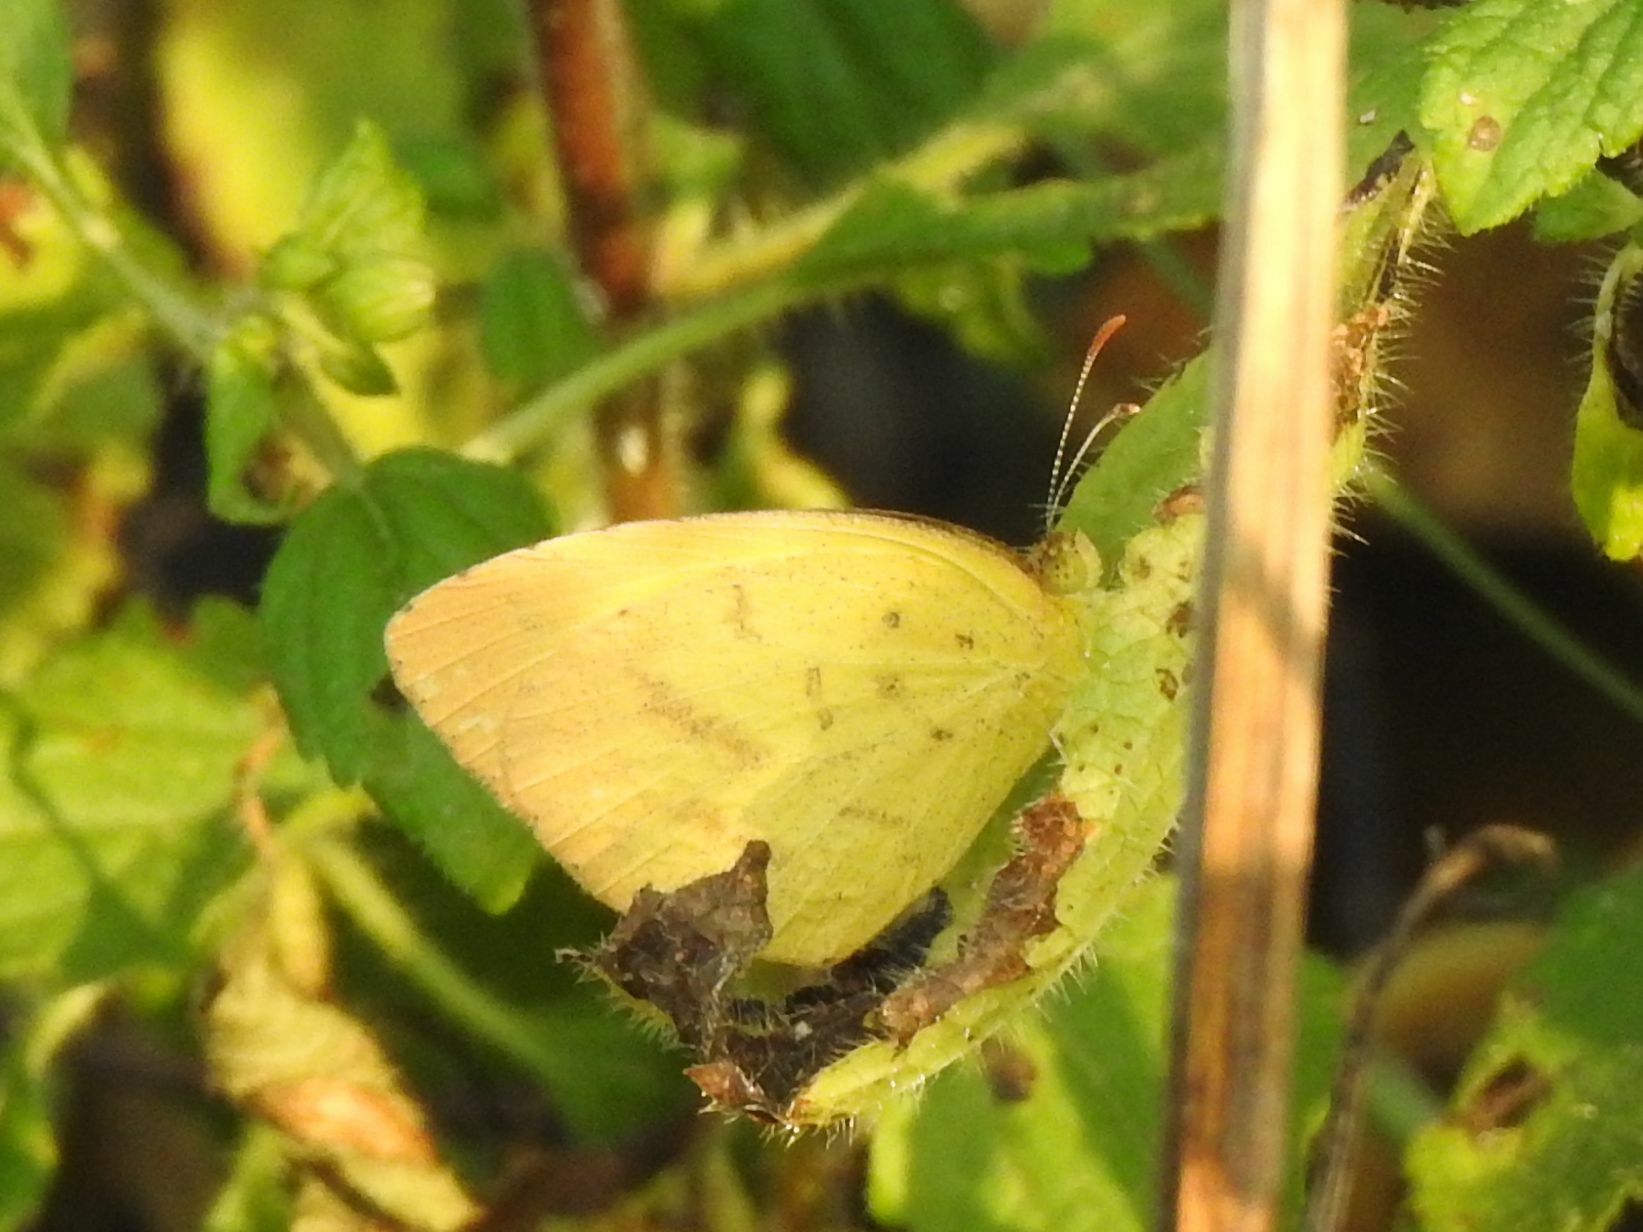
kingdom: Animalia
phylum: Arthropoda
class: Insecta
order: Lepidoptera
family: Pieridae
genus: Eurema
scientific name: Eurema brigitta
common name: Small grass yellow
